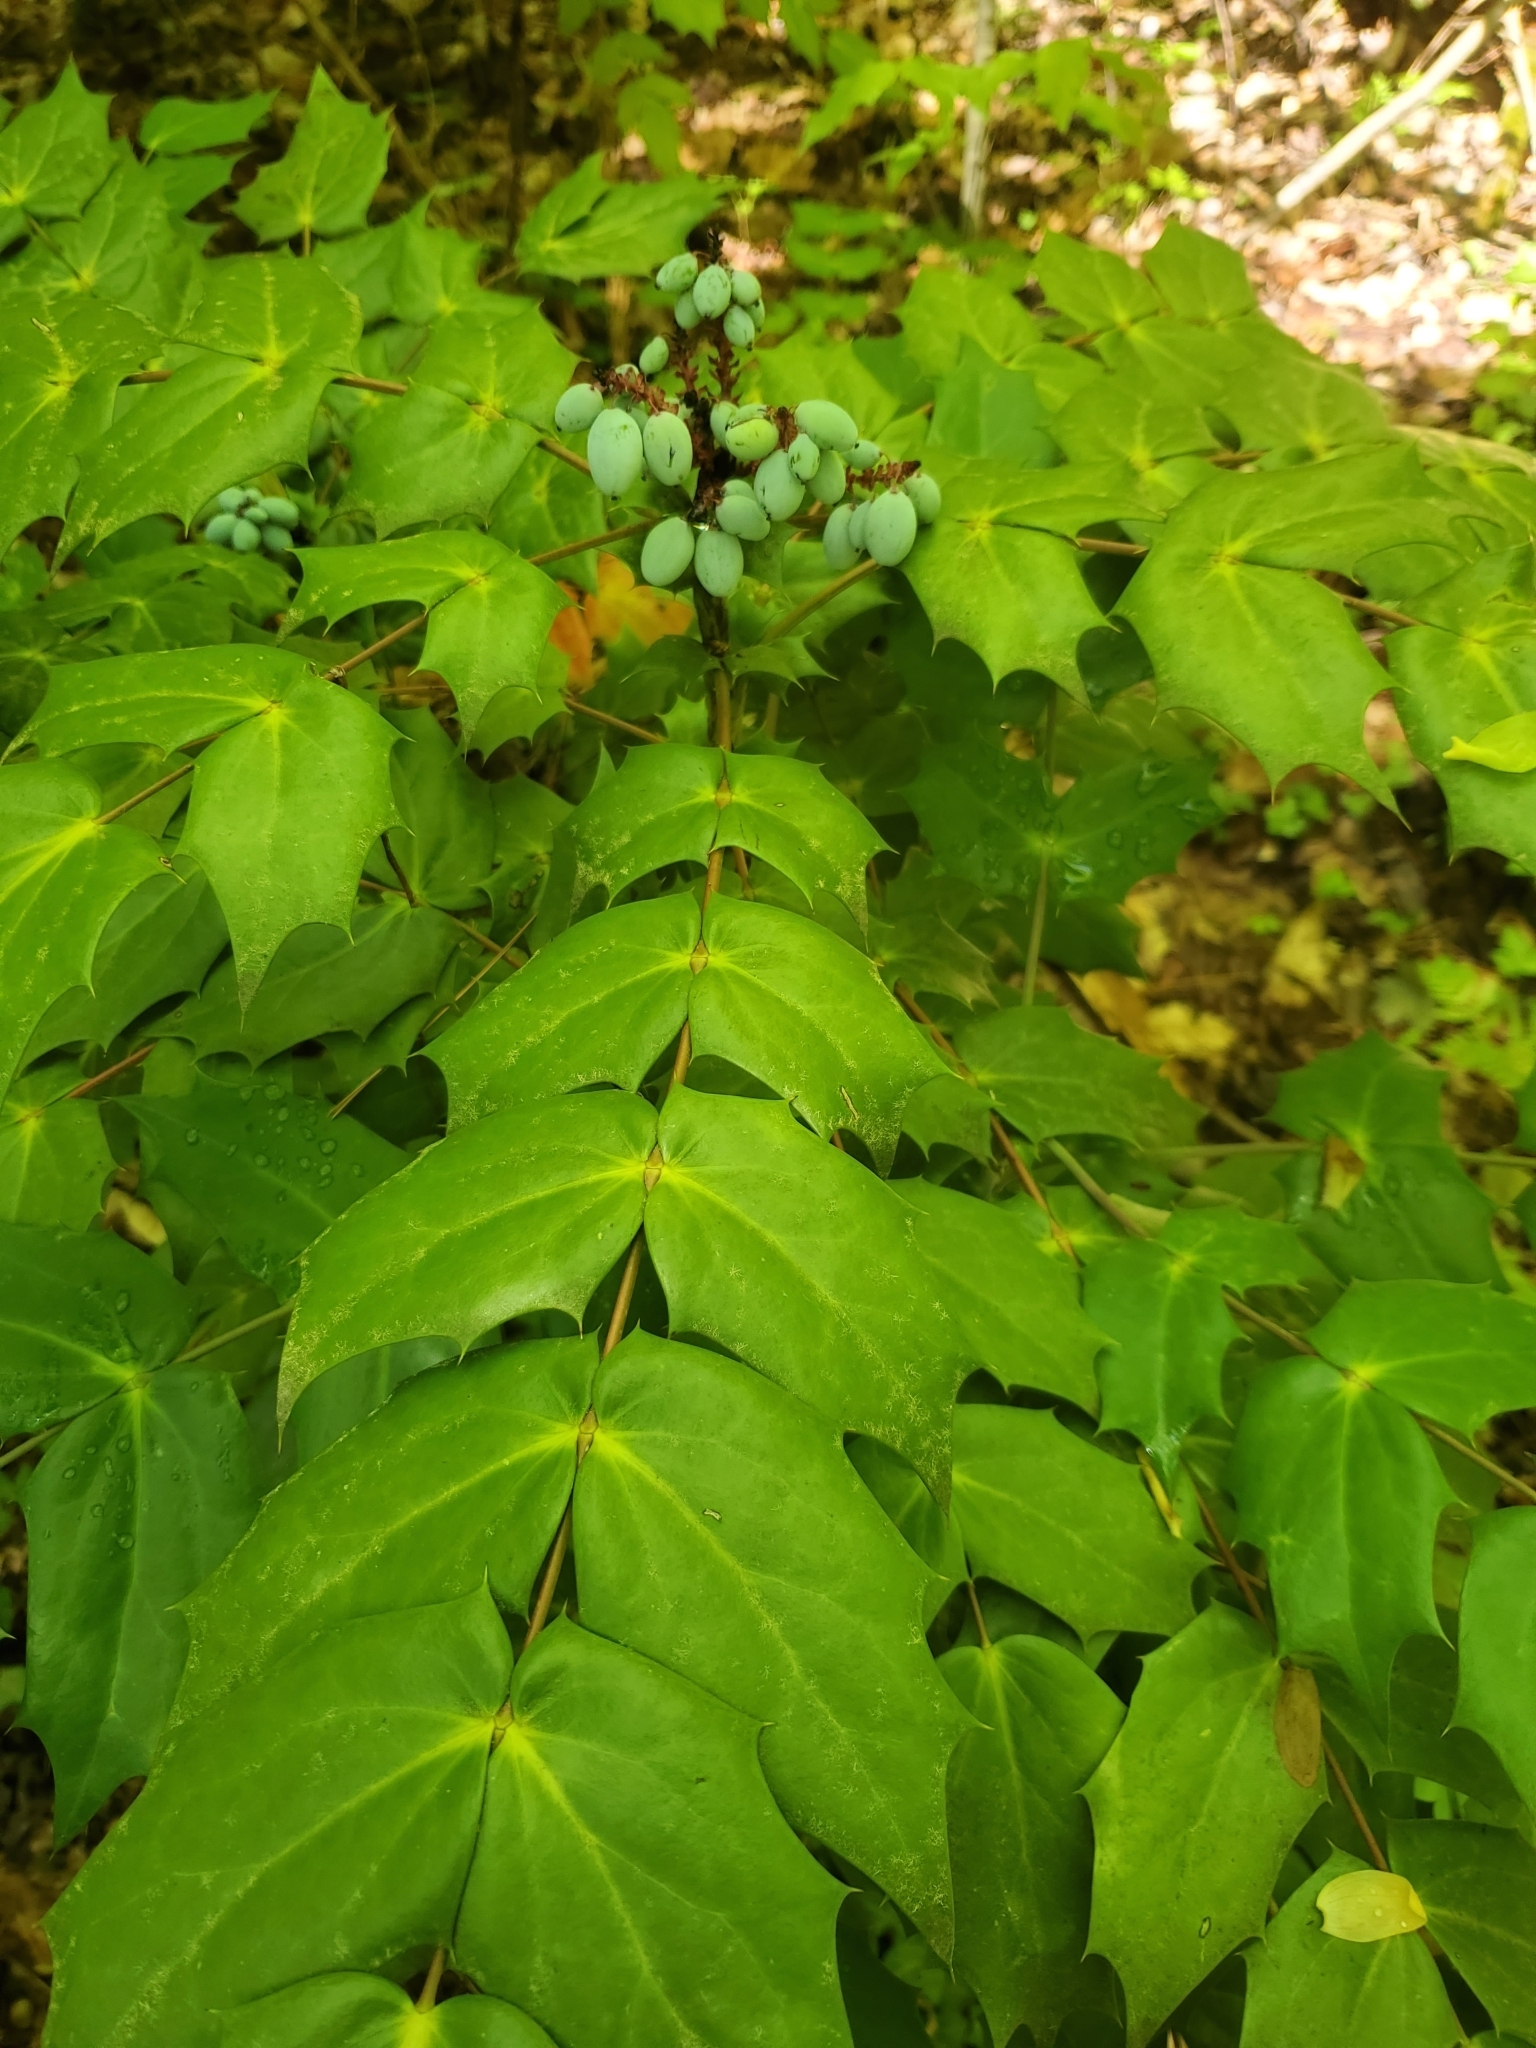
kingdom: Plantae
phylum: Tracheophyta
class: Magnoliopsida
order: Ranunculales
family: Berberidaceae
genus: Mahonia
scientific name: Mahonia bealei
